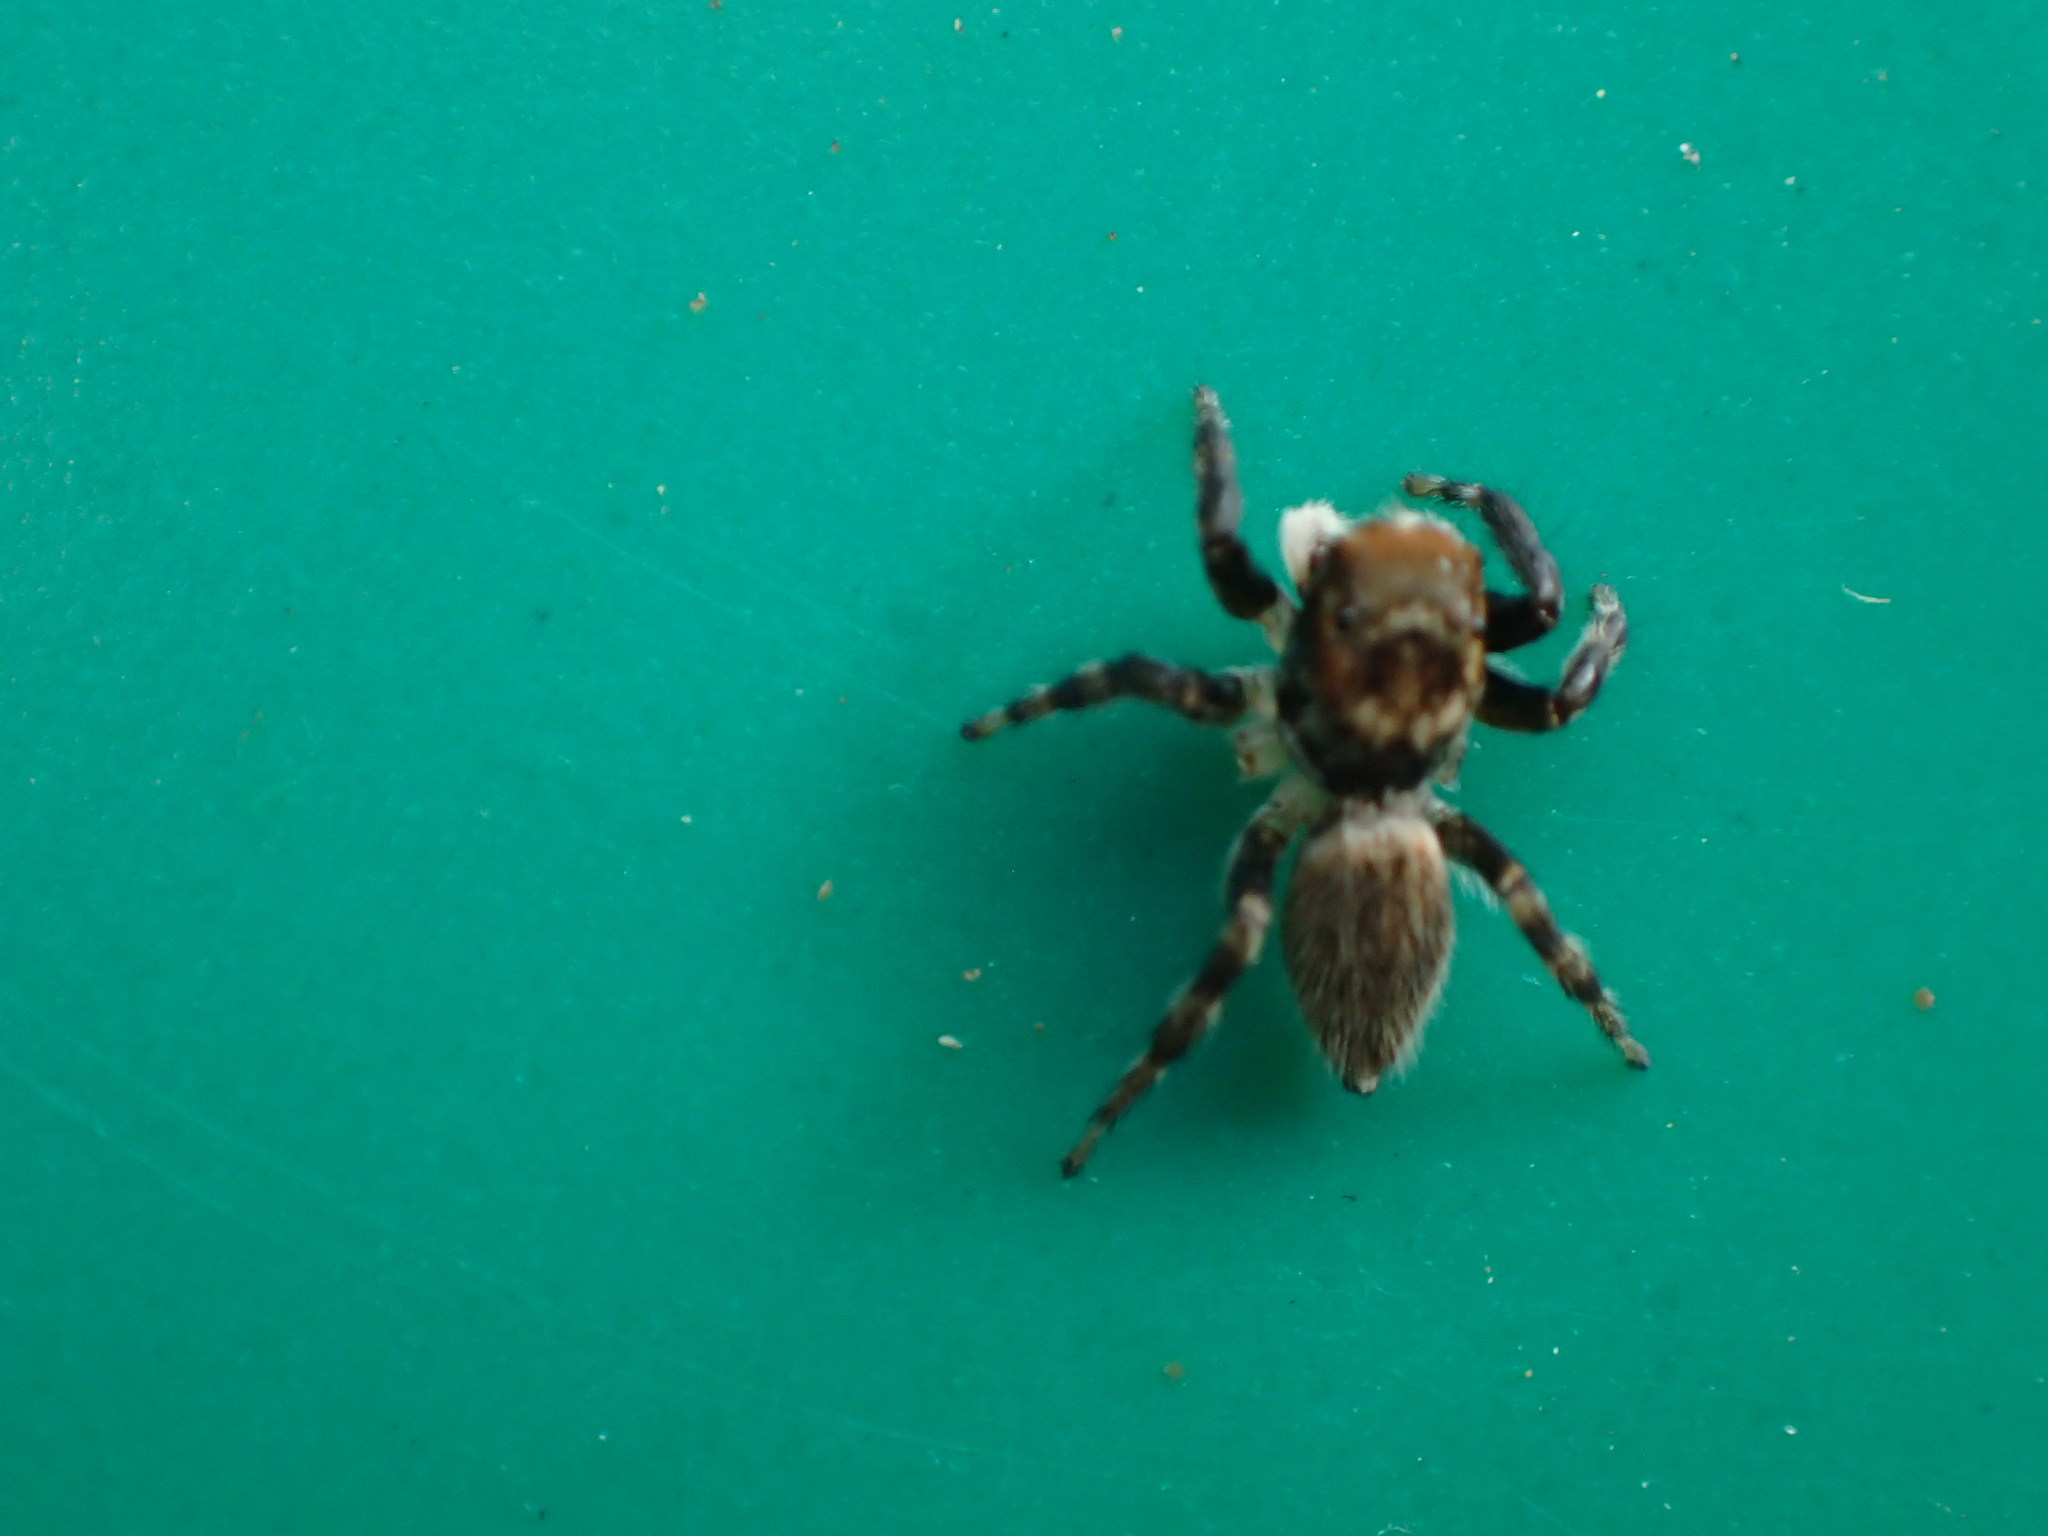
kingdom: Animalia
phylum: Arthropoda
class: Arachnida
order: Araneae
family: Salticidae
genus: Maratus
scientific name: Maratus griseus
